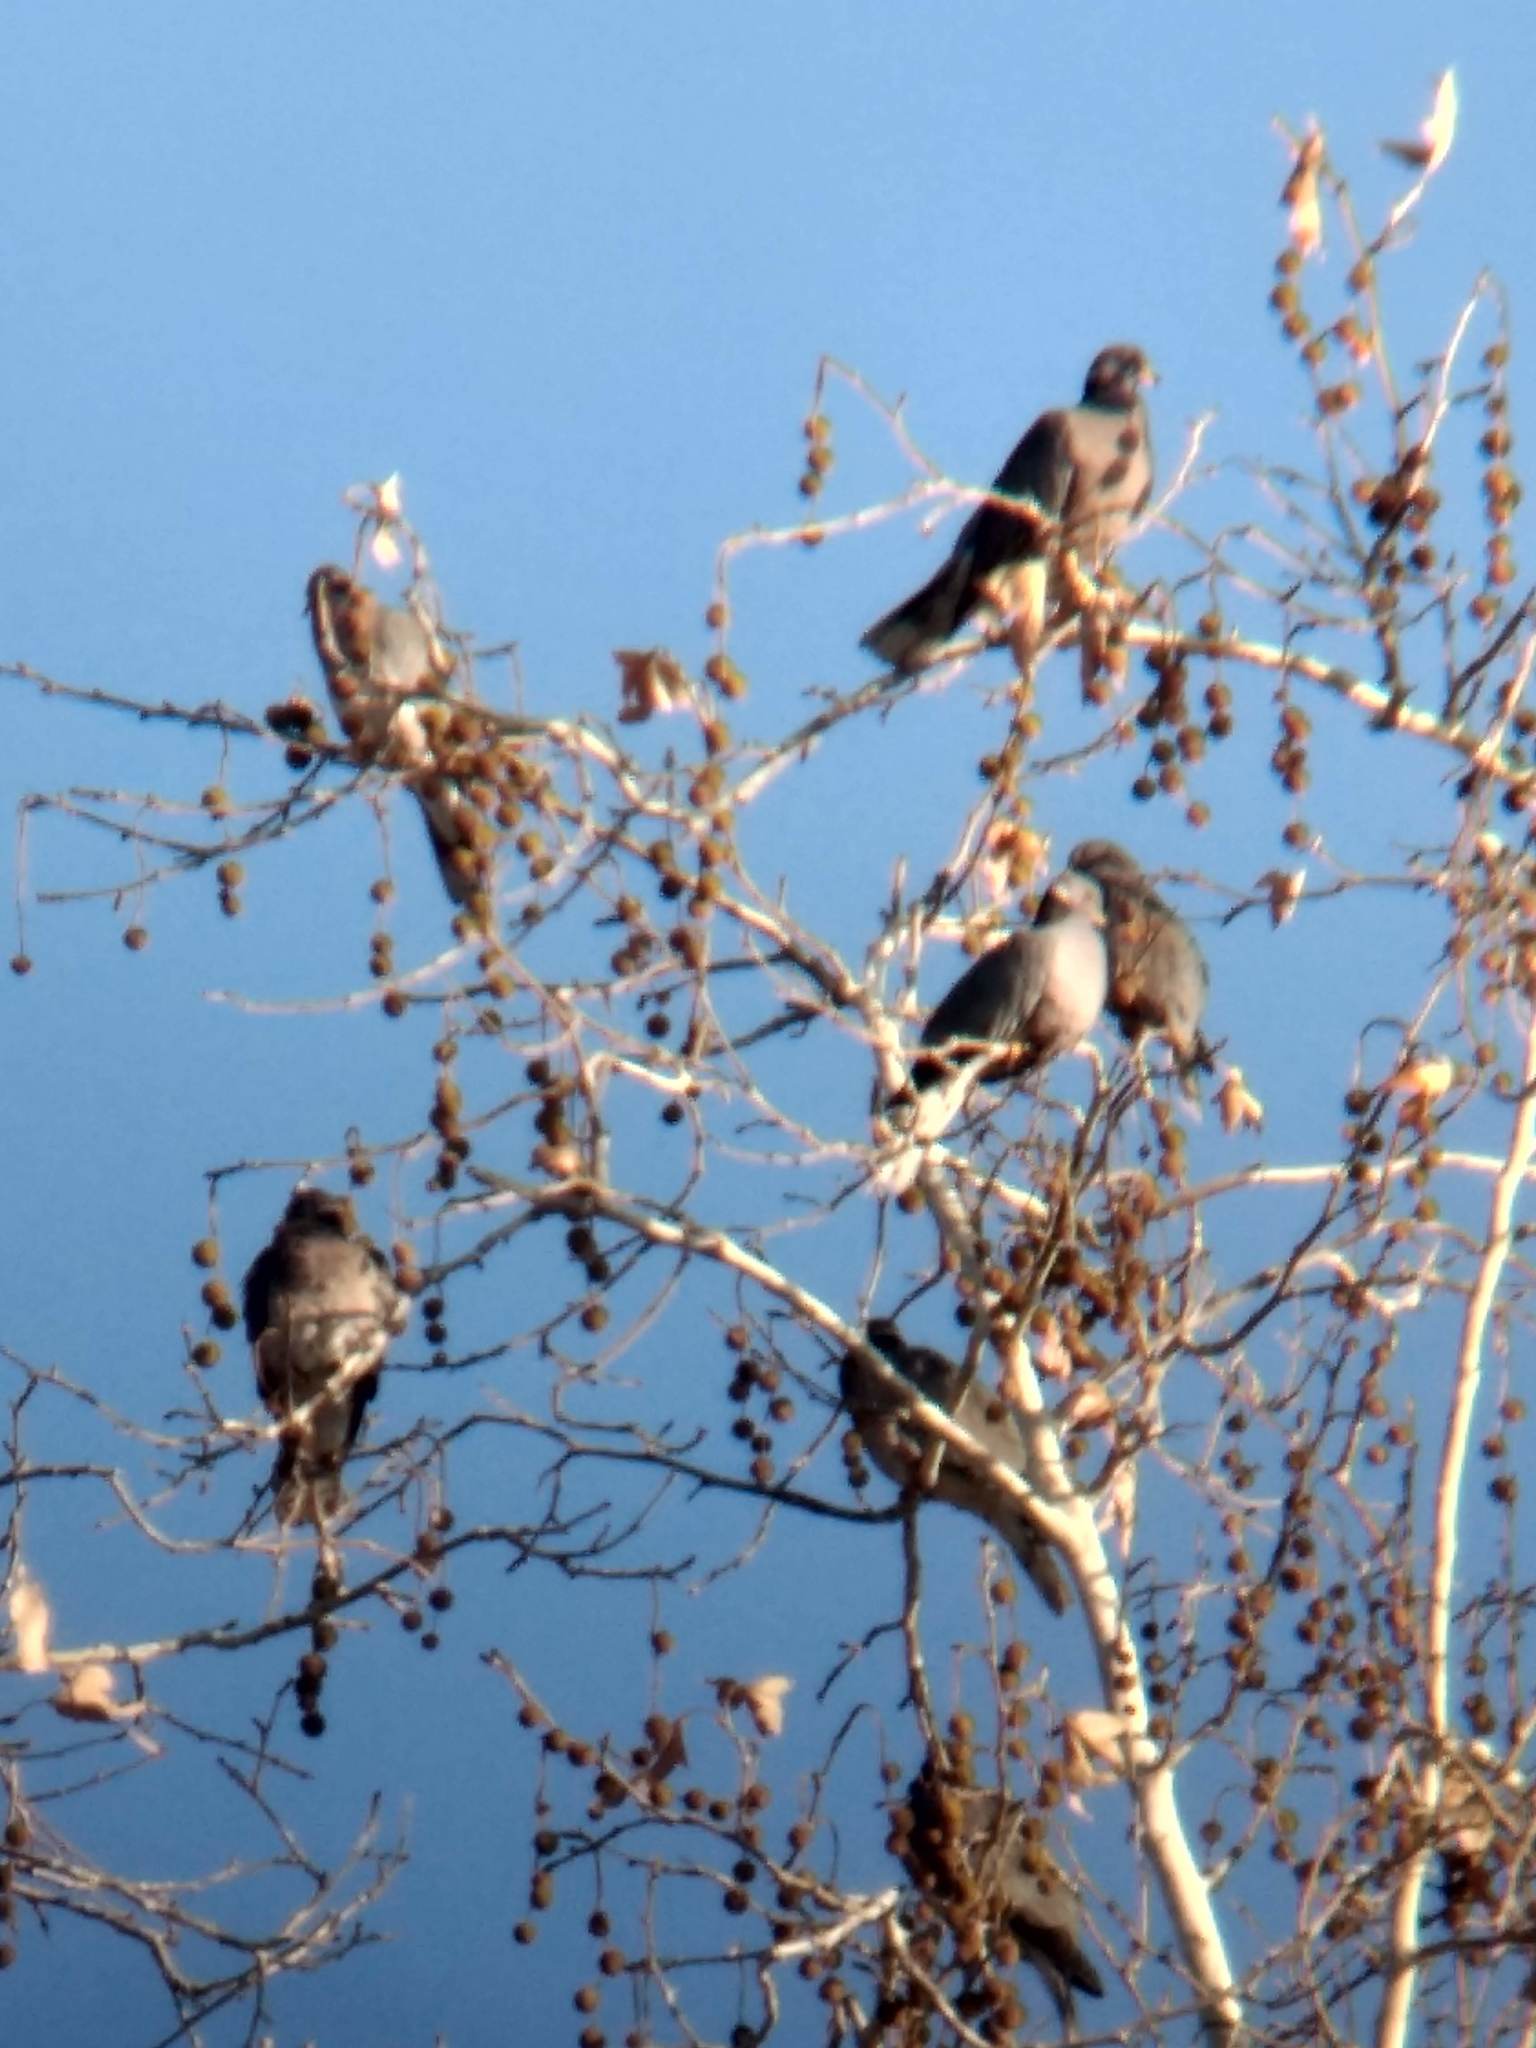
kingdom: Animalia
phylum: Chordata
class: Aves
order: Columbiformes
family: Columbidae
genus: Patagioenas
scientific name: Patagioenas fasciata
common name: Band-tailed pigeon
